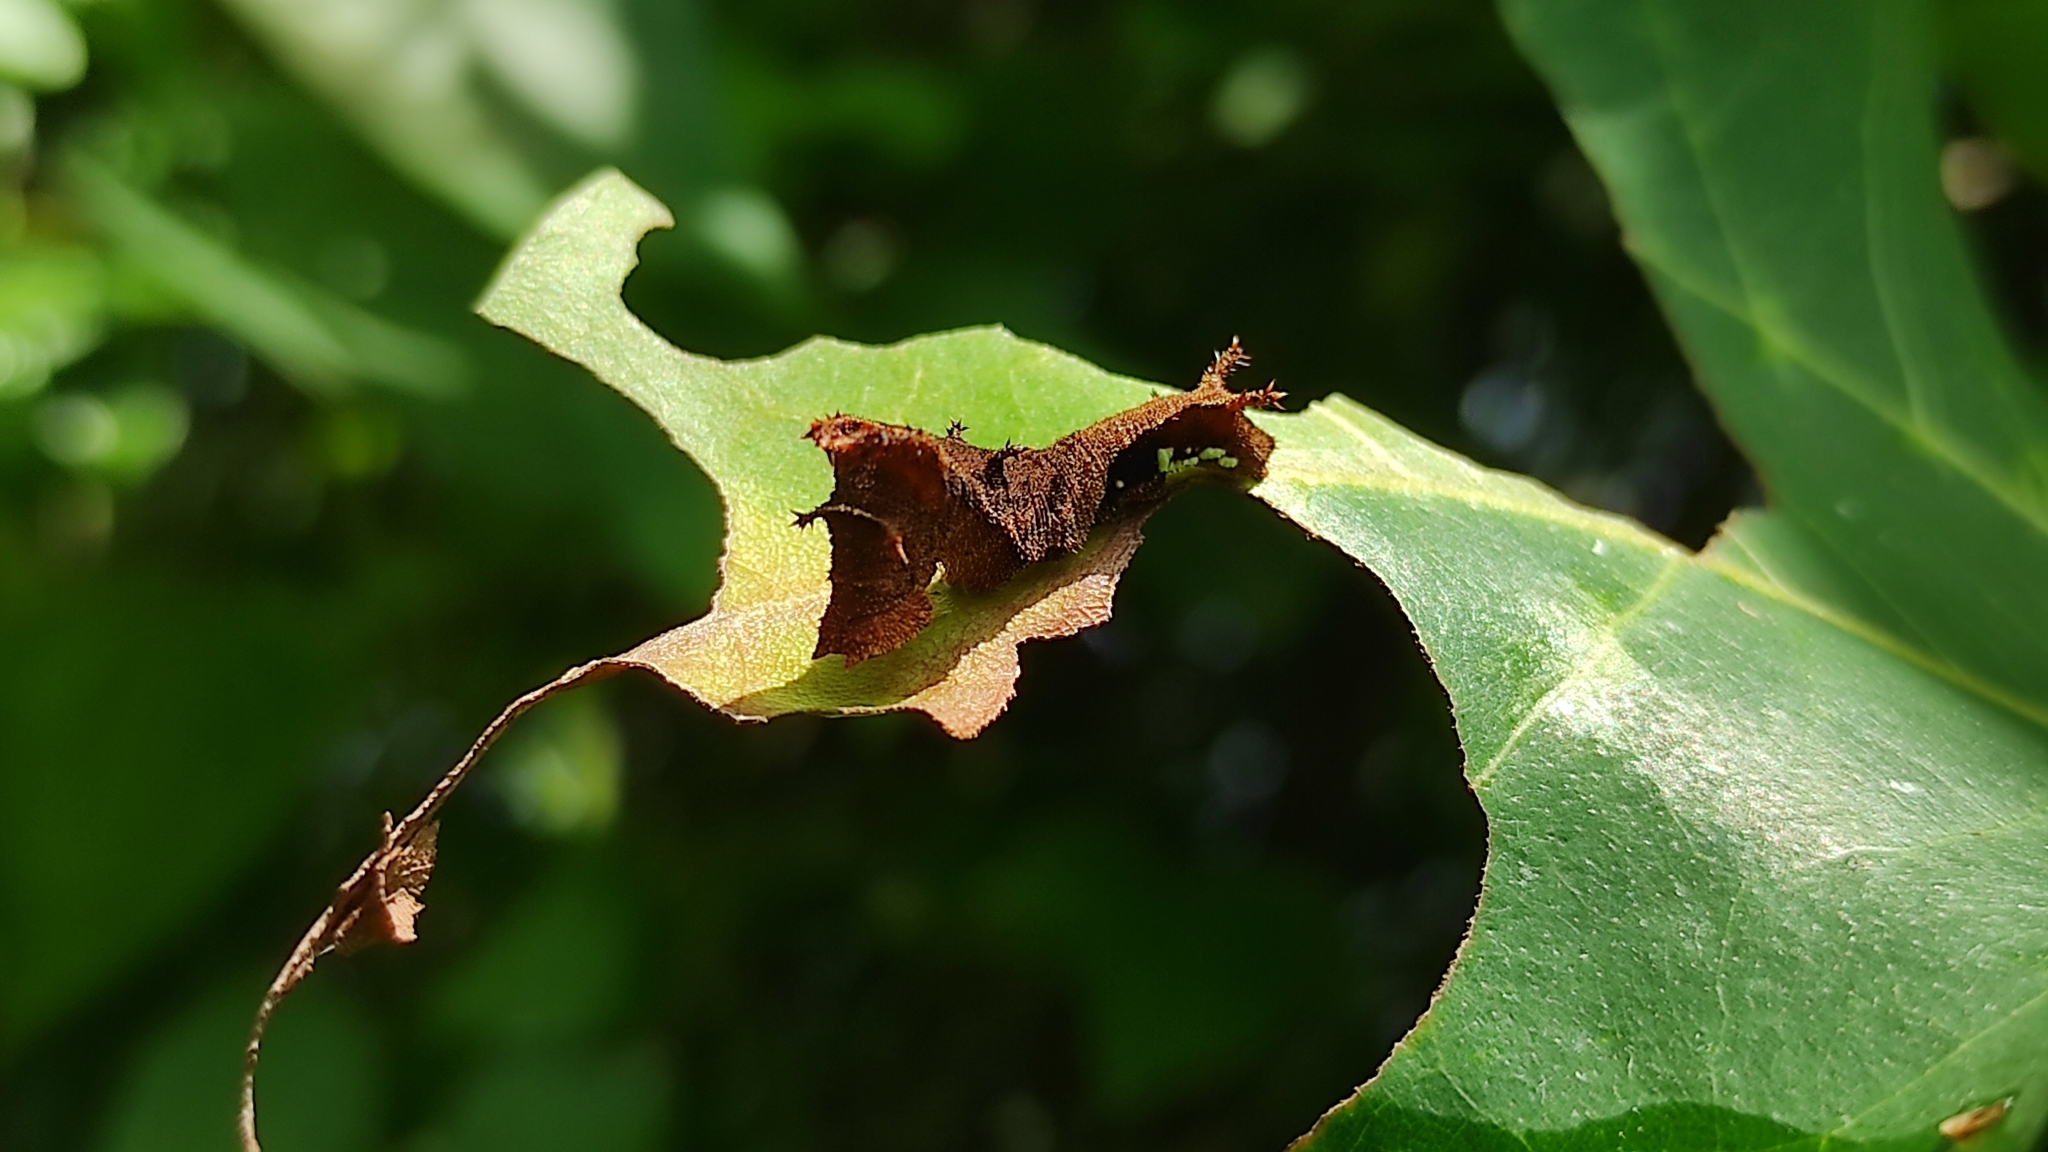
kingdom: Animalia
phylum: Arthropoda
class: Insecta
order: Lepidoptera
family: Nymphalidae
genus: Neptis
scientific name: Neptis jumbah
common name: Chestnut-streaked sailer
